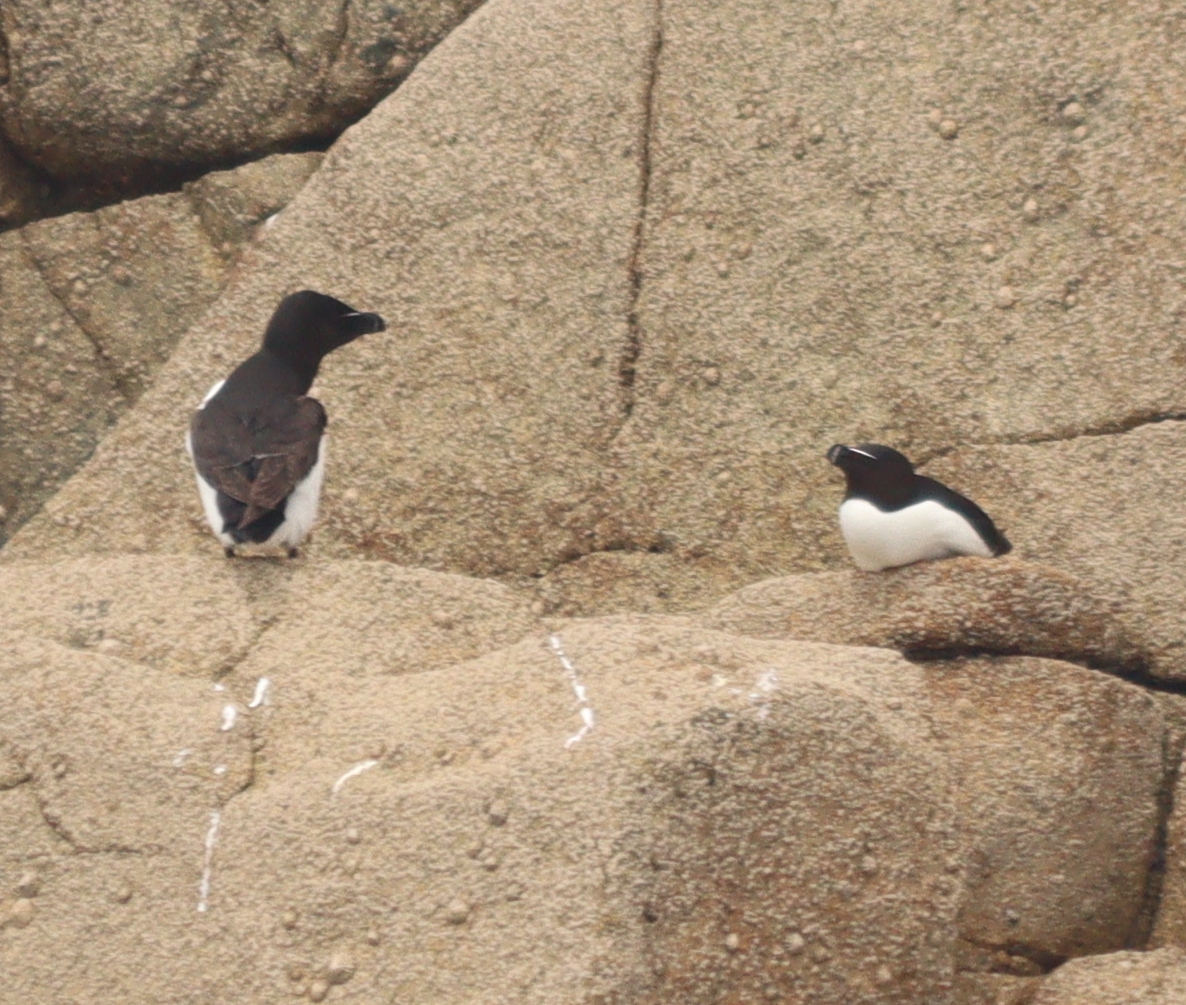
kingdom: Animalia
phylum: Chordata
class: Aves
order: Charadriiformes
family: Alcidae
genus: Alca
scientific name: Alca torda
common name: Razorbill
